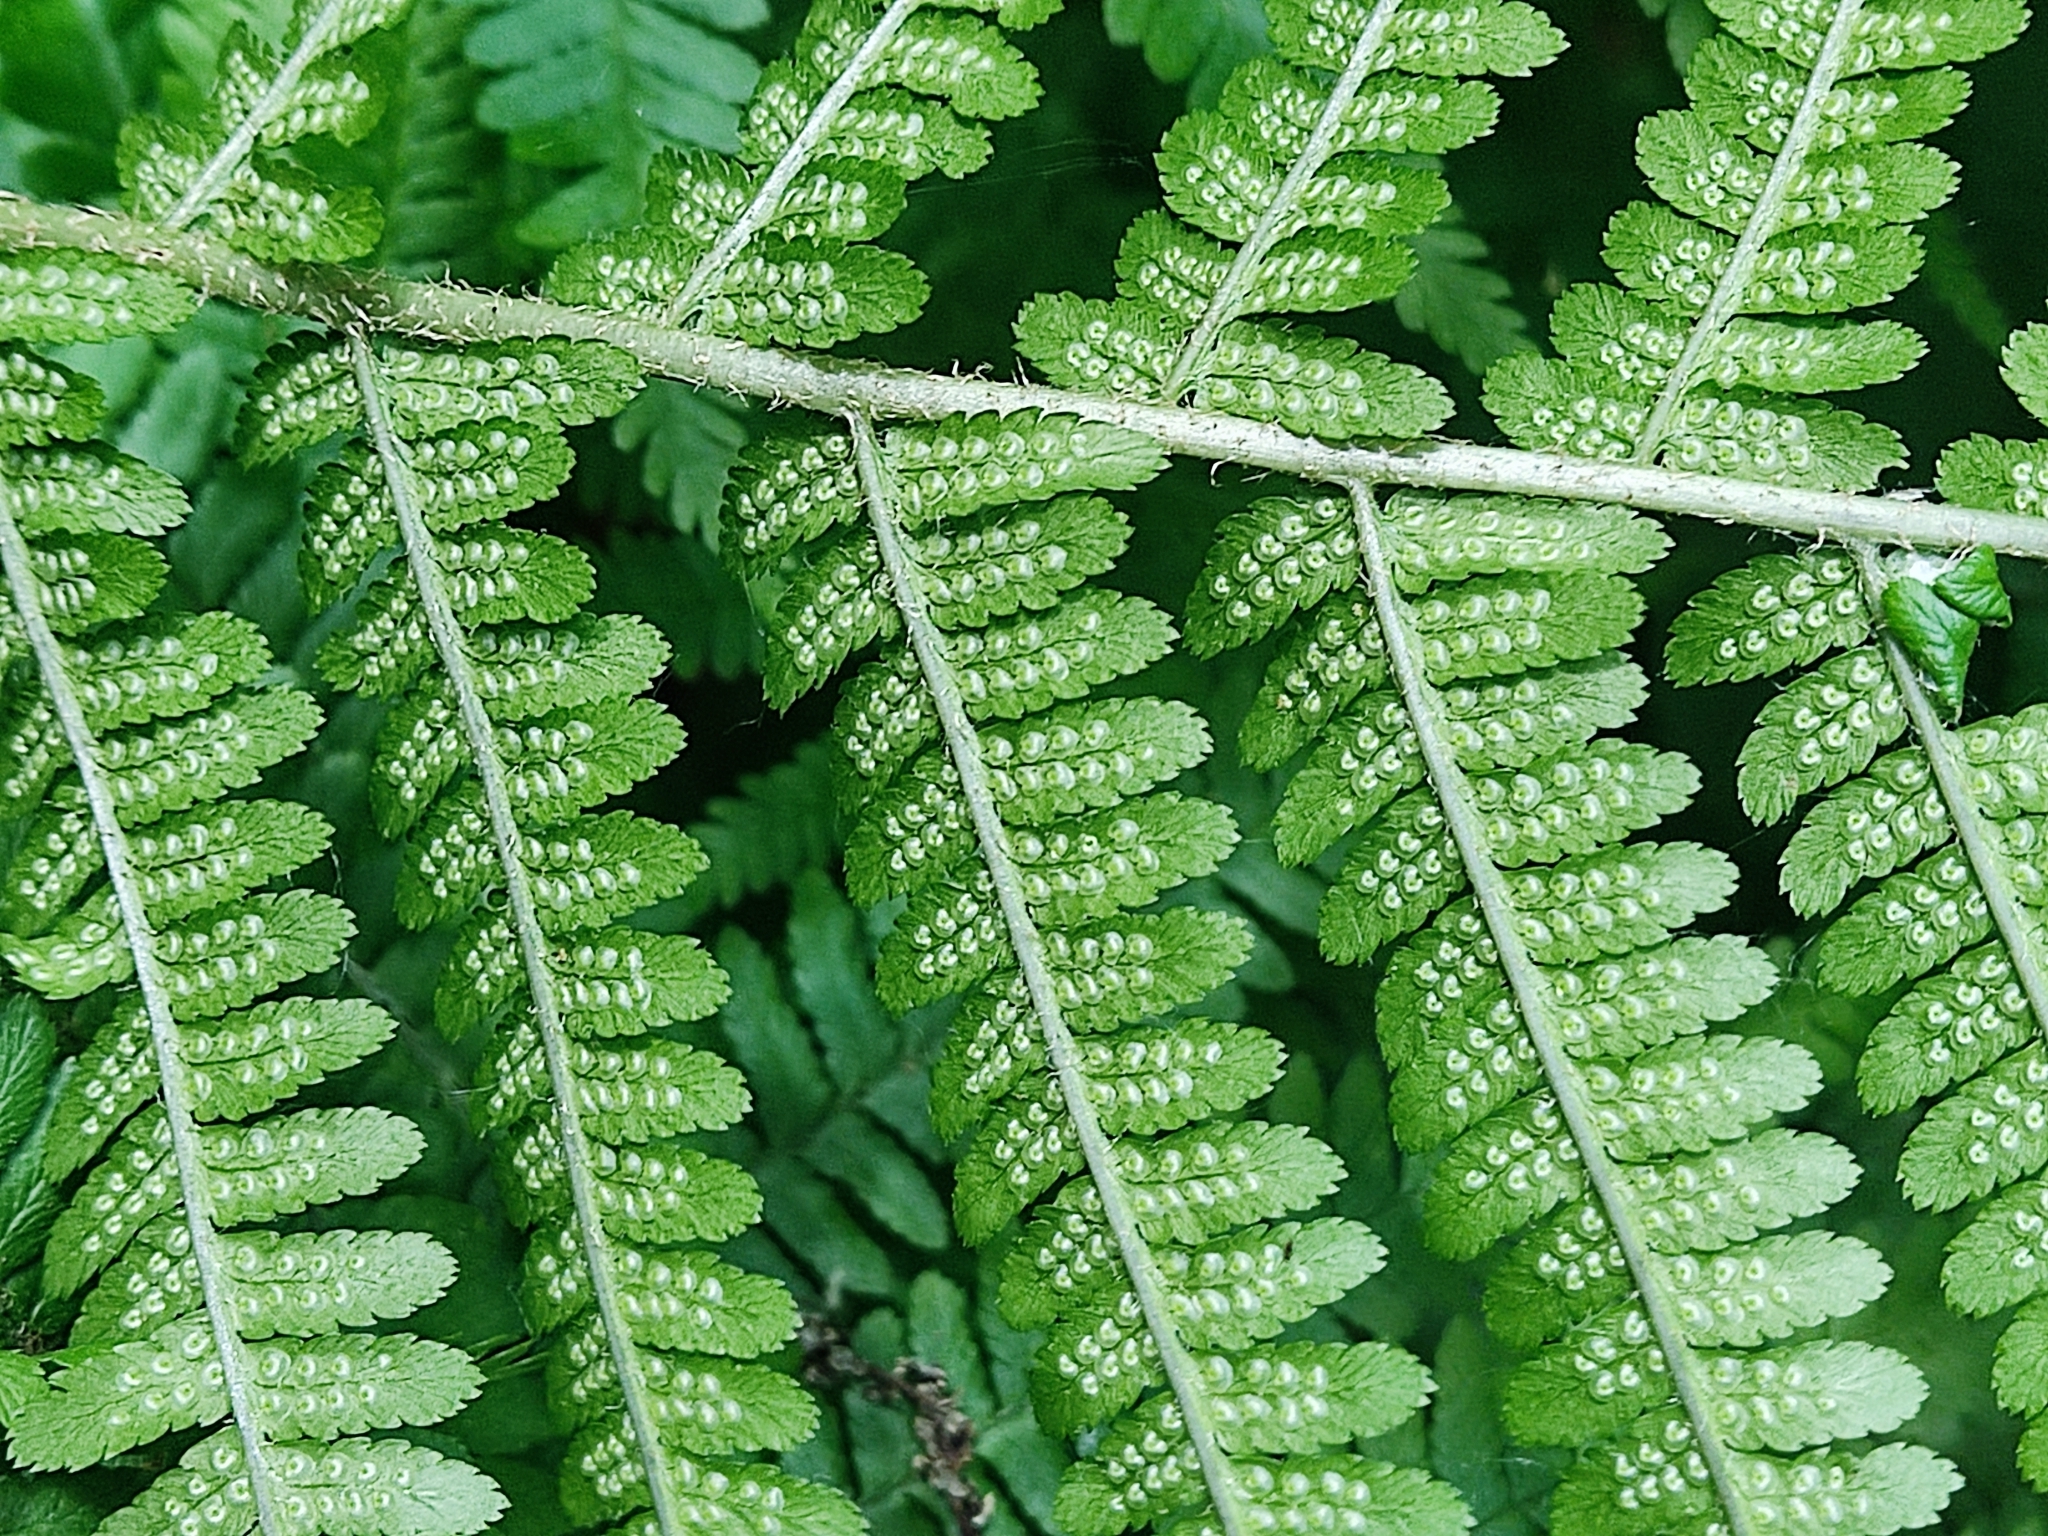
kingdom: Plantae
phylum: Tracheophyta
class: Polypodiopsida
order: Polypodiales
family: Dryopteridaceae
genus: Dryopteris
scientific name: Dryopteris filix-mas
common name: Male fern
